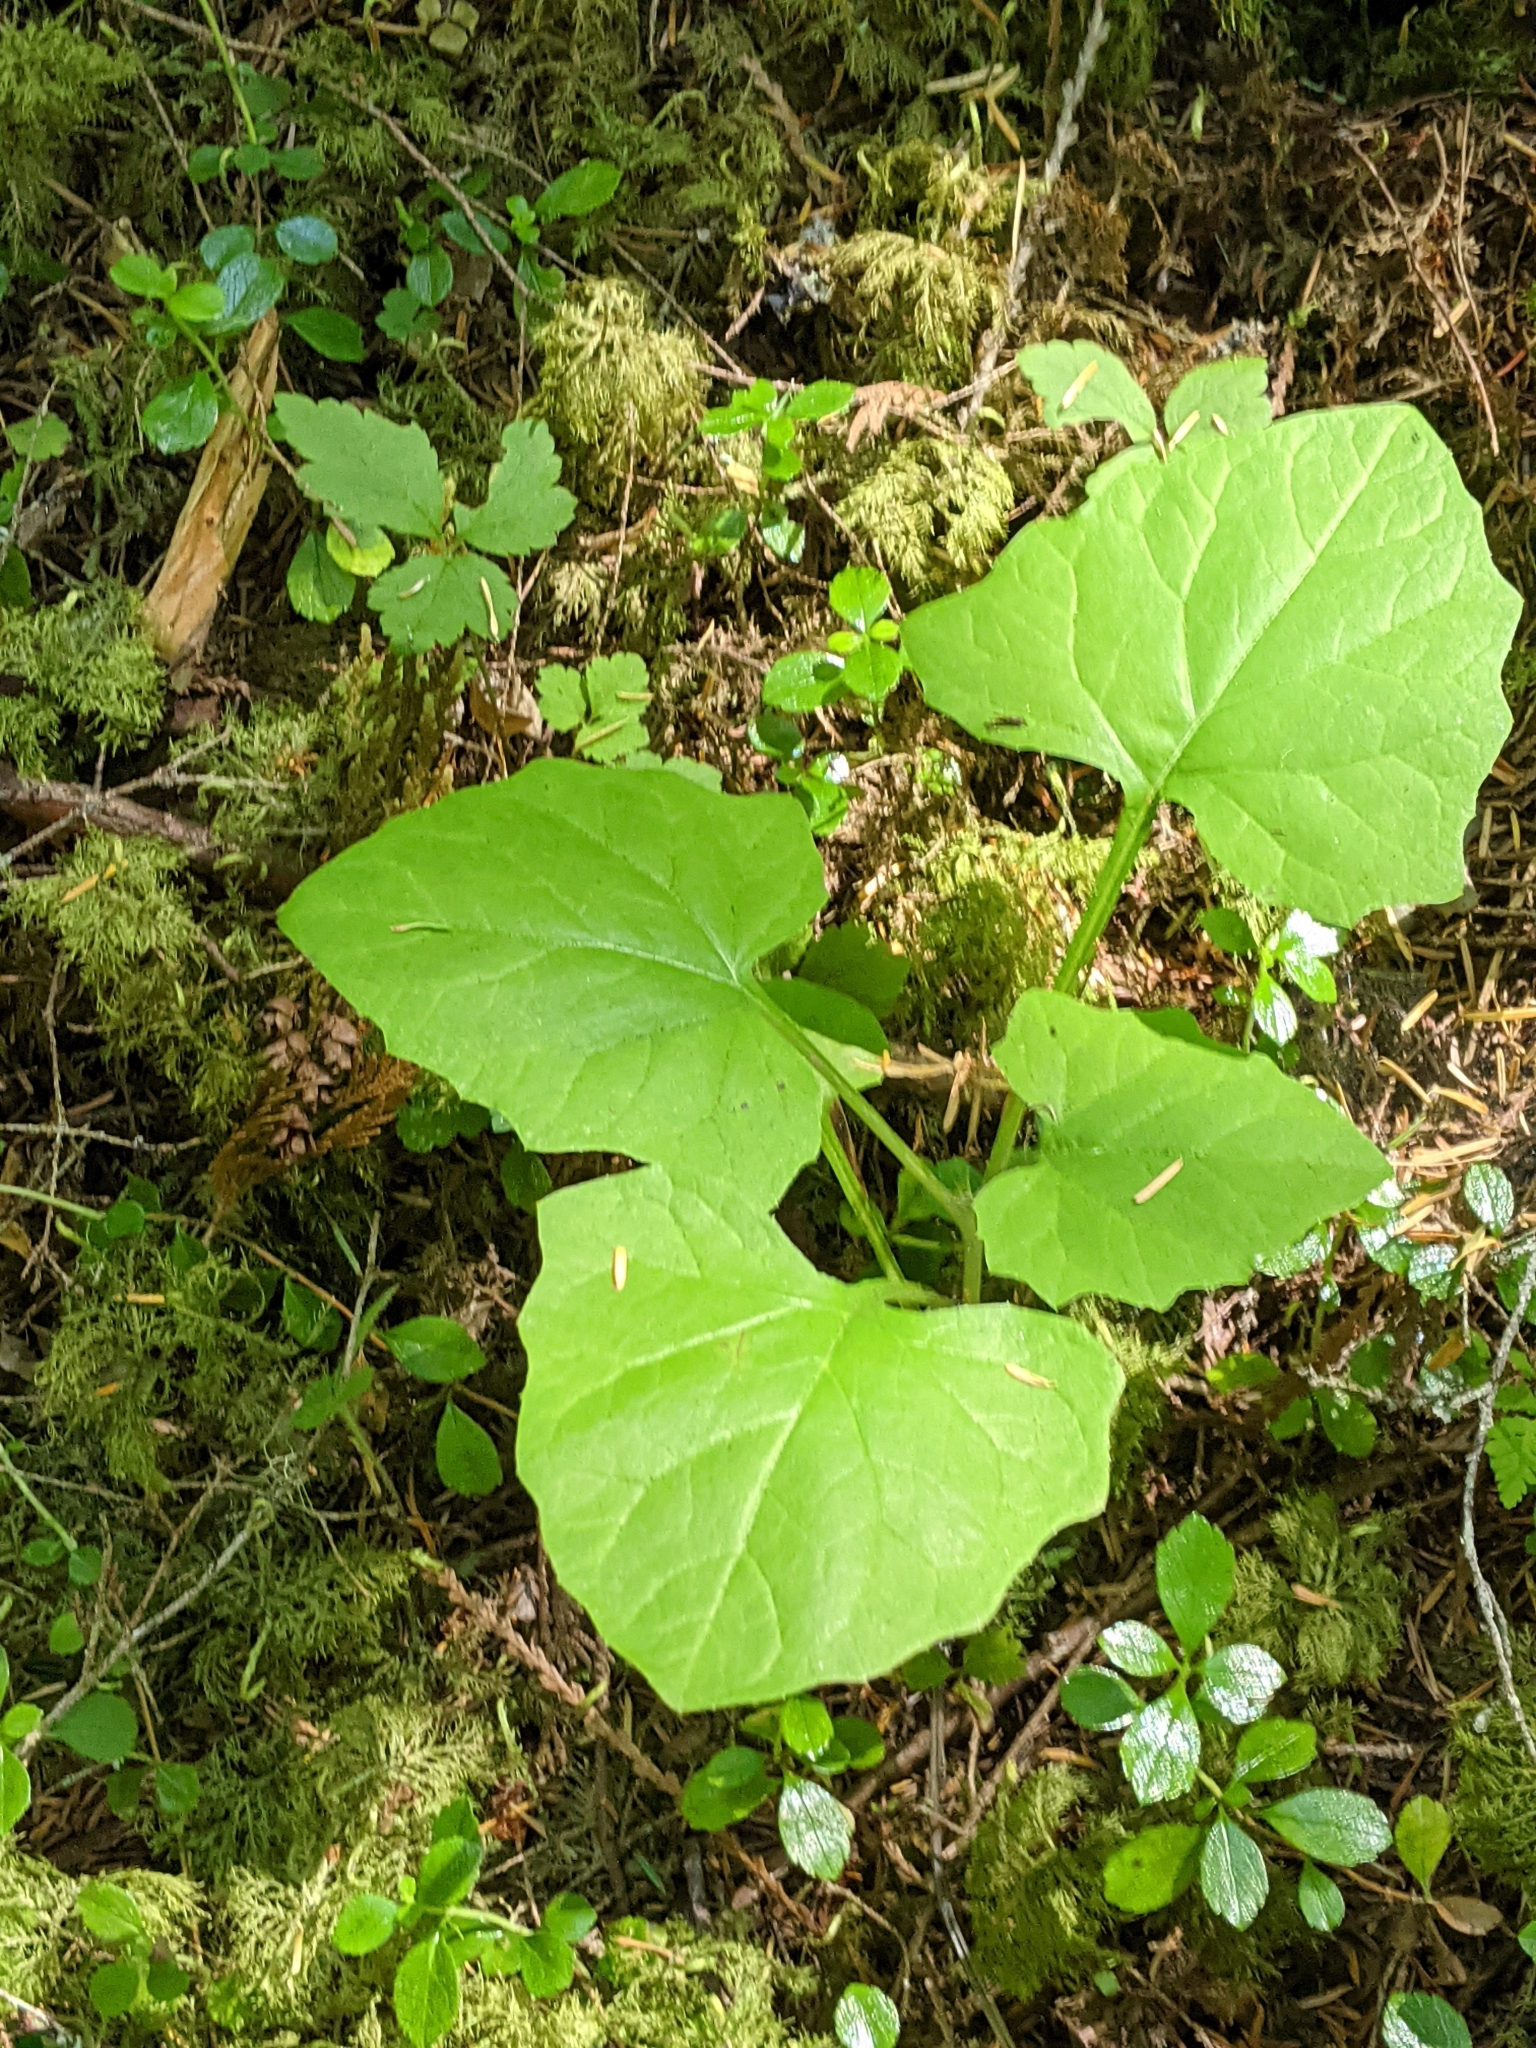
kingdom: Plantae
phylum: Tracheophyta
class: Magnoliopsida
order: Asterales
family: Asteraceae
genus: Adenocaulon
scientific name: Adenocaulon bicolor
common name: Trailplant
